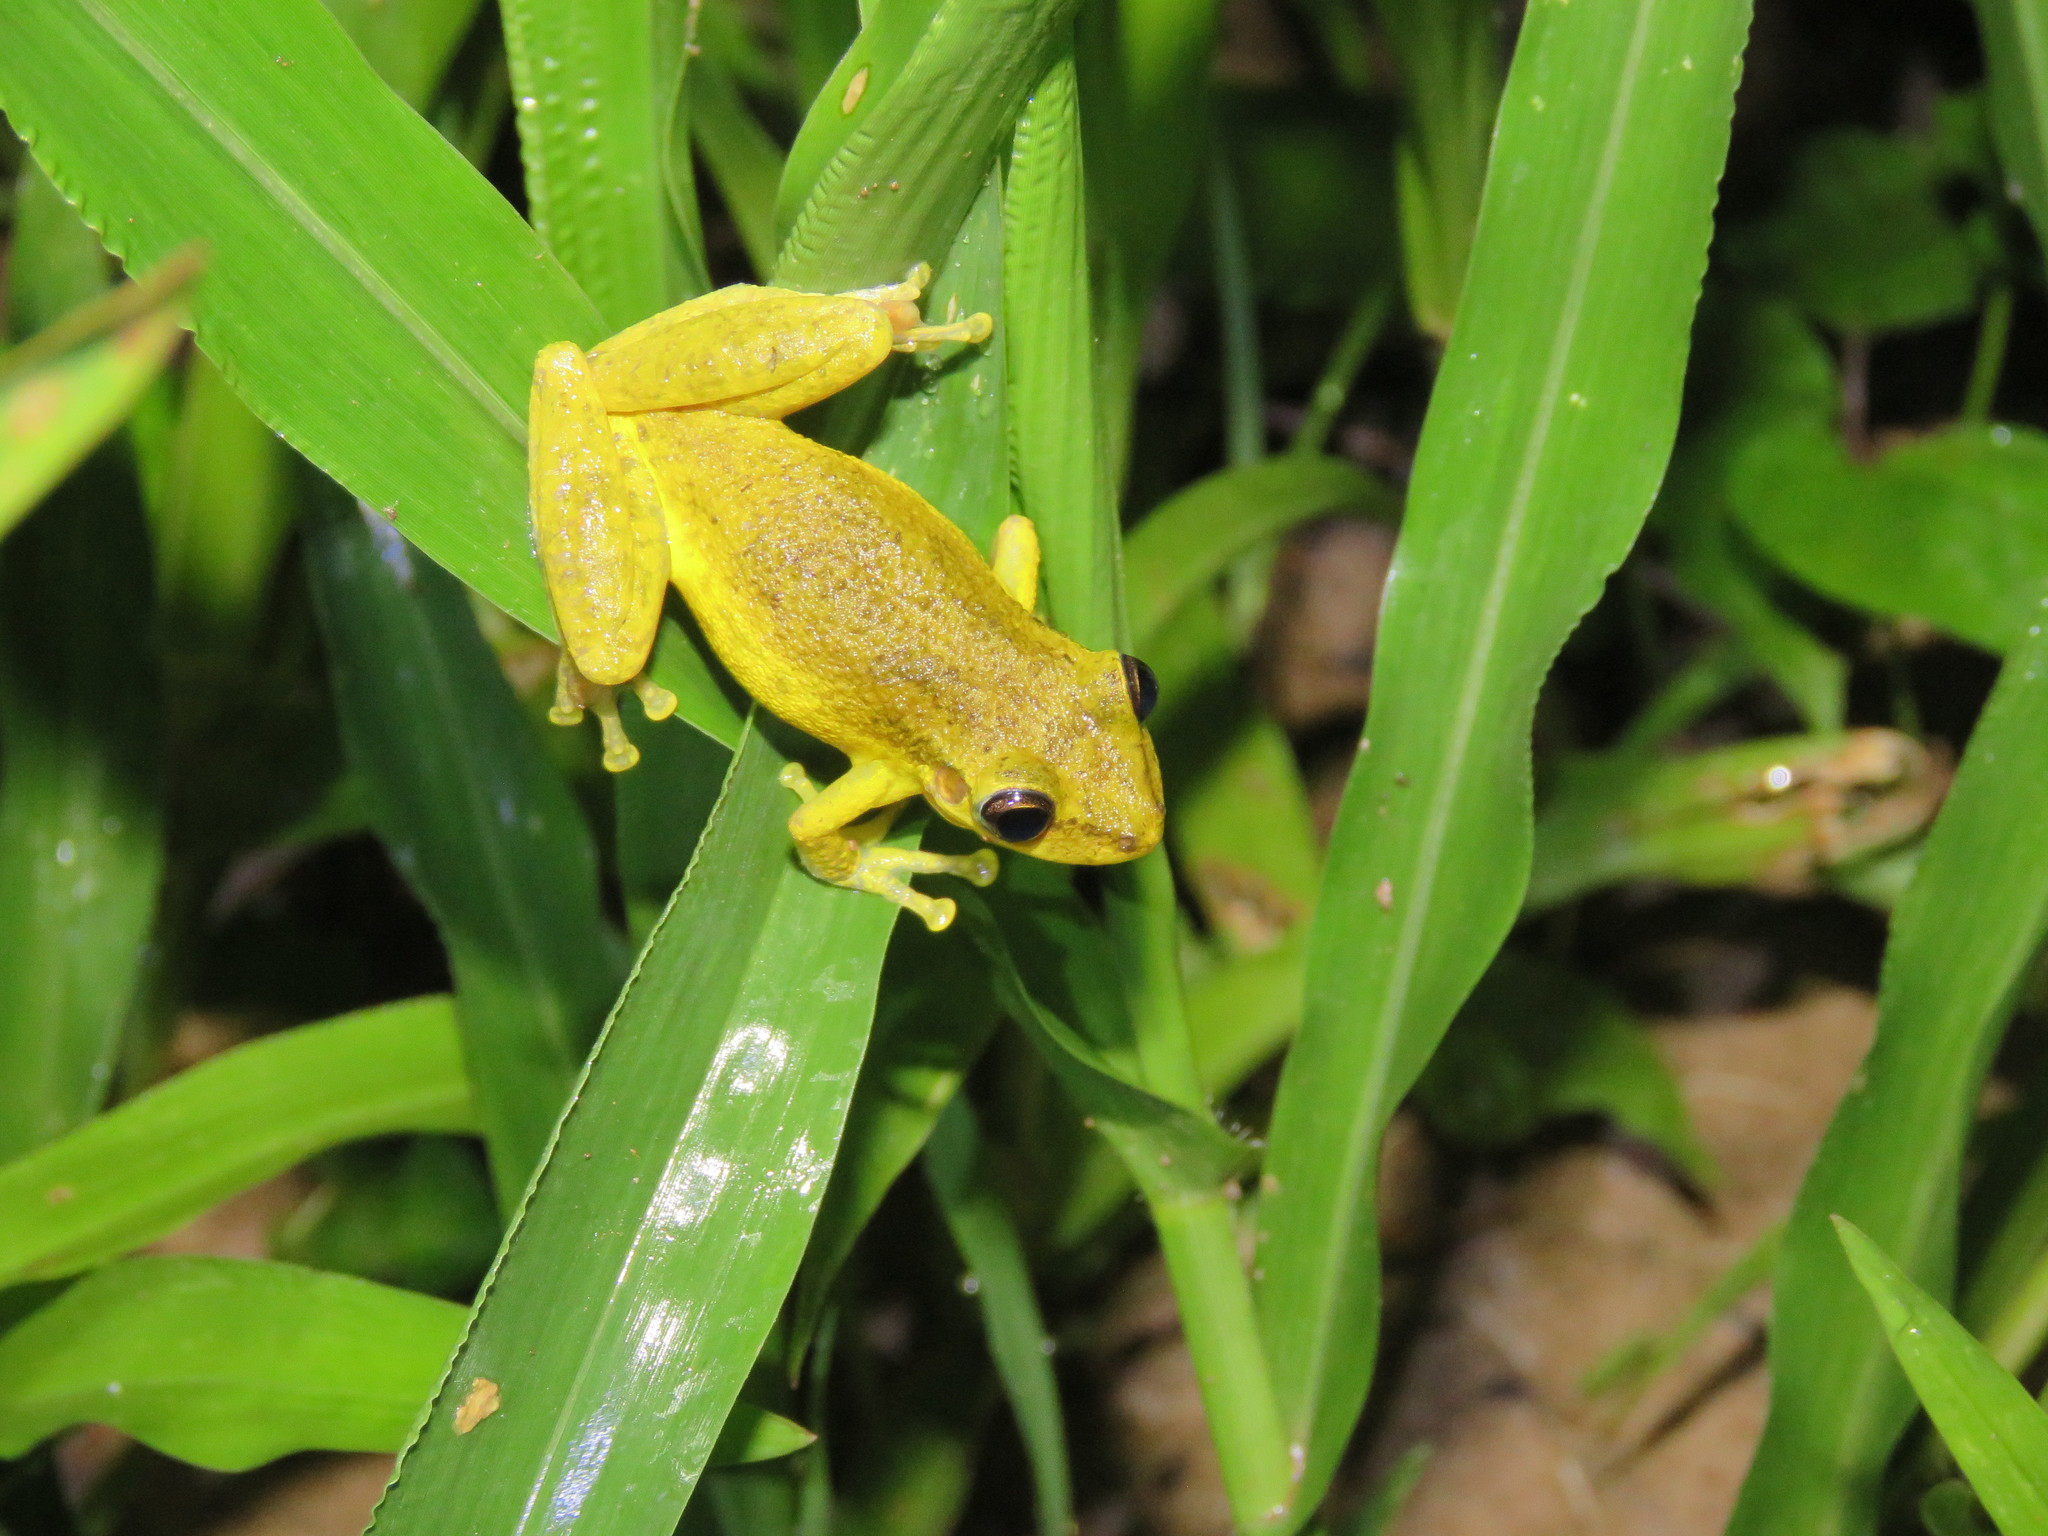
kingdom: Animalia
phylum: Chordata
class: Amphibia
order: Anura
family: Hylidae
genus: Scinax
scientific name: Scinax ruber
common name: Red snouted treefrog
